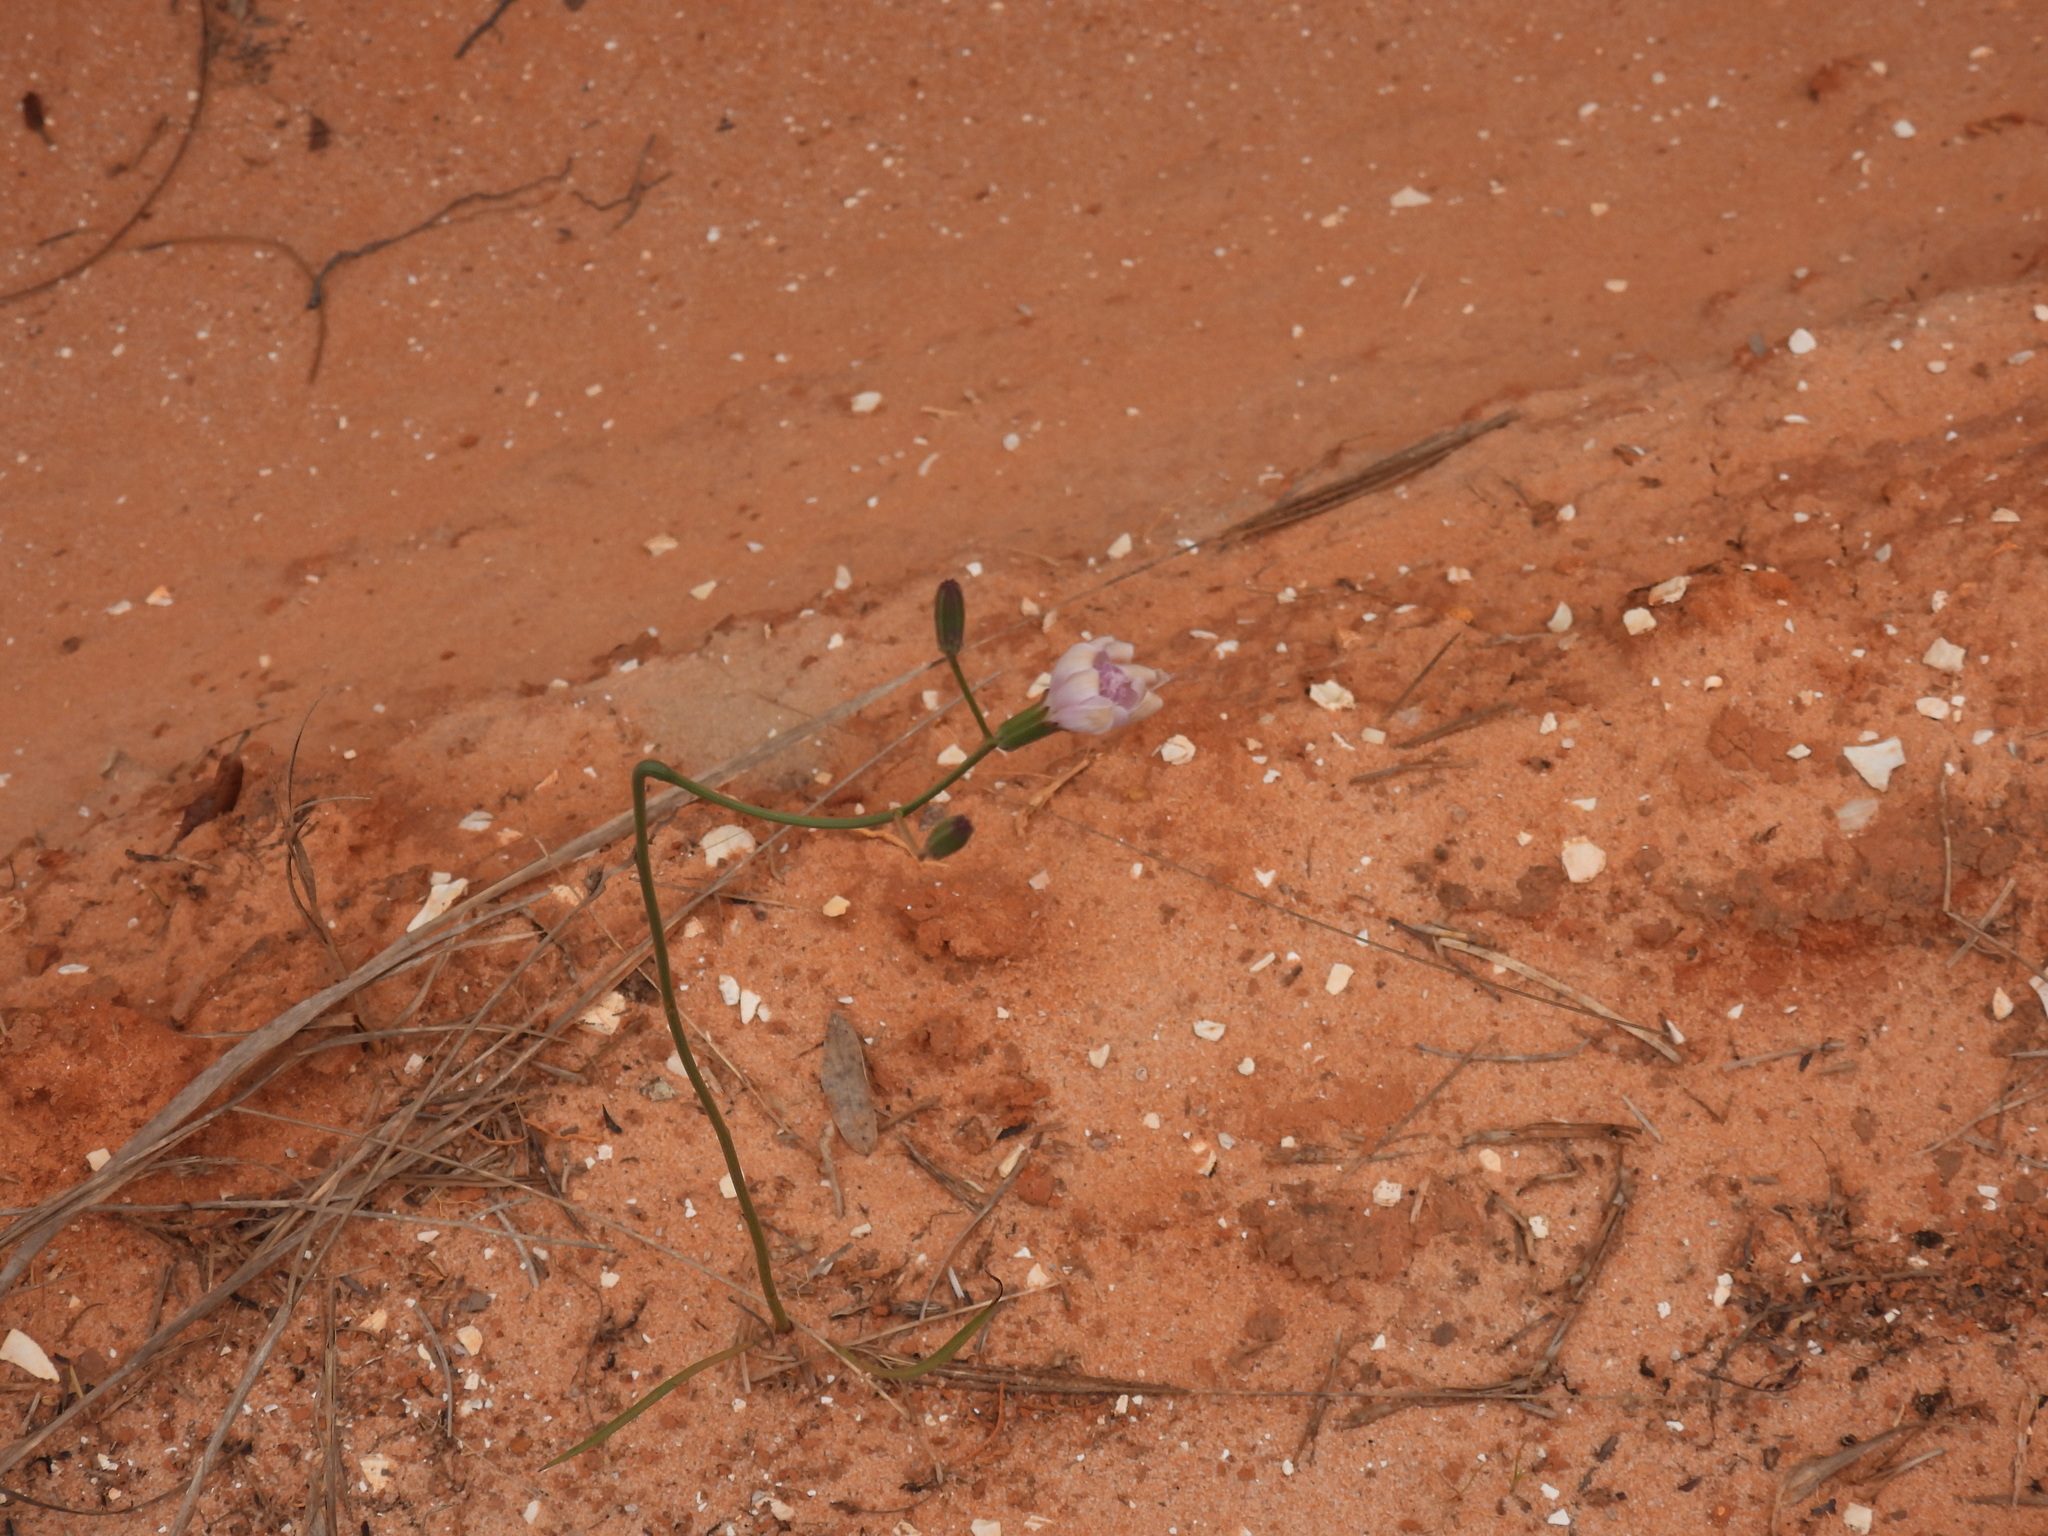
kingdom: Plantae
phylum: Tracheophyta
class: Magnoliopsida
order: Asterales
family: Asteraceae
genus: Lygodesmia
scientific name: Lygodesmia aphylla
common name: Rose-rush
